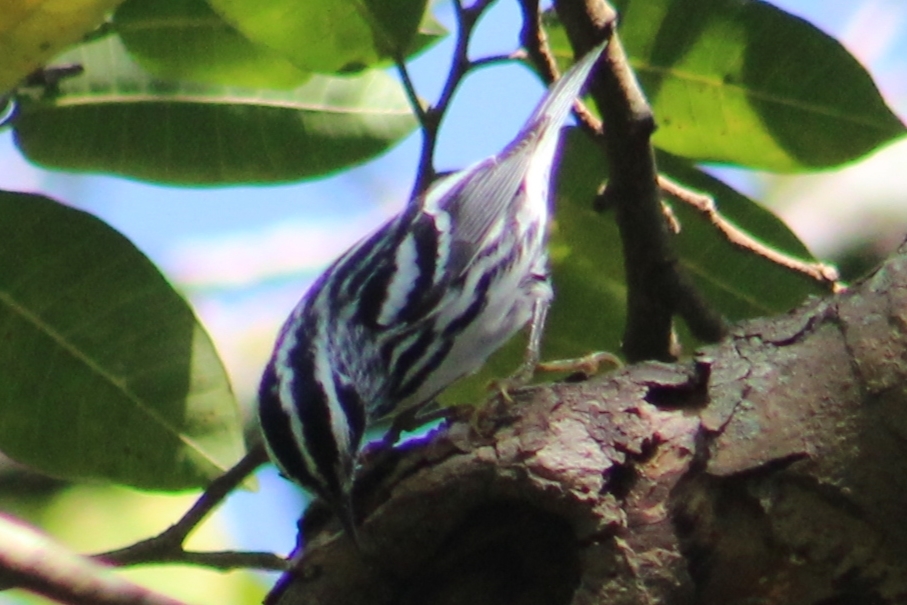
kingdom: Animalia
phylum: Chordata
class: Aves
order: Passeriformes
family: Parulidae
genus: Mniotilta
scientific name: Mniotilta varia
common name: Black-and-white warbler
